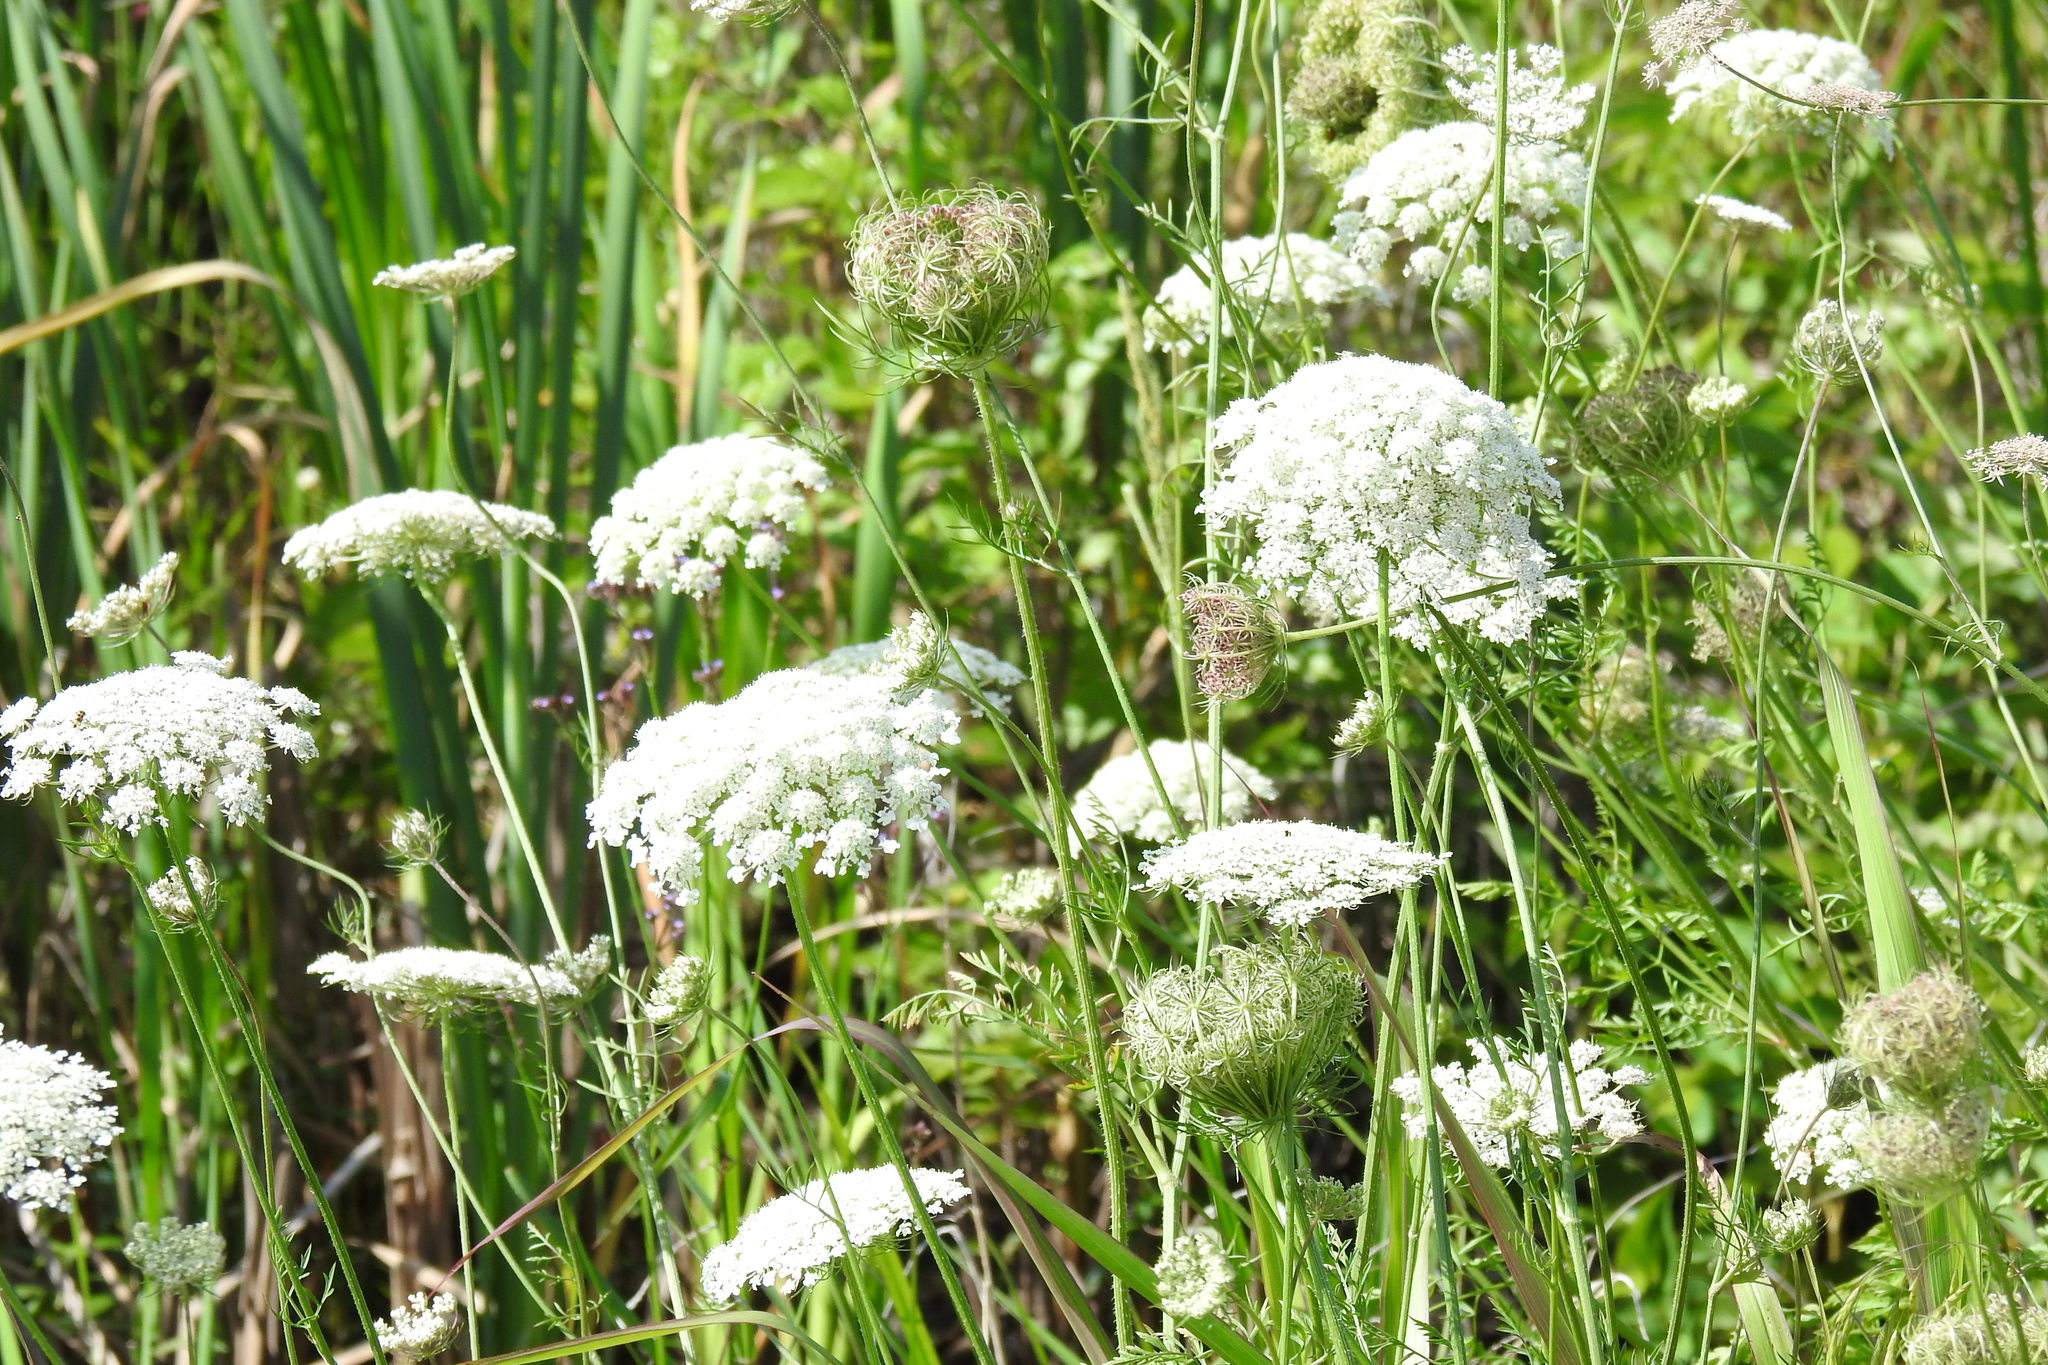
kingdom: Plantae
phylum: Tracheophyta
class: Magnoliopsida
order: Apiales
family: Apiaceae
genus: Daucus
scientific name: Daucus carota
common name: Wild carrot
